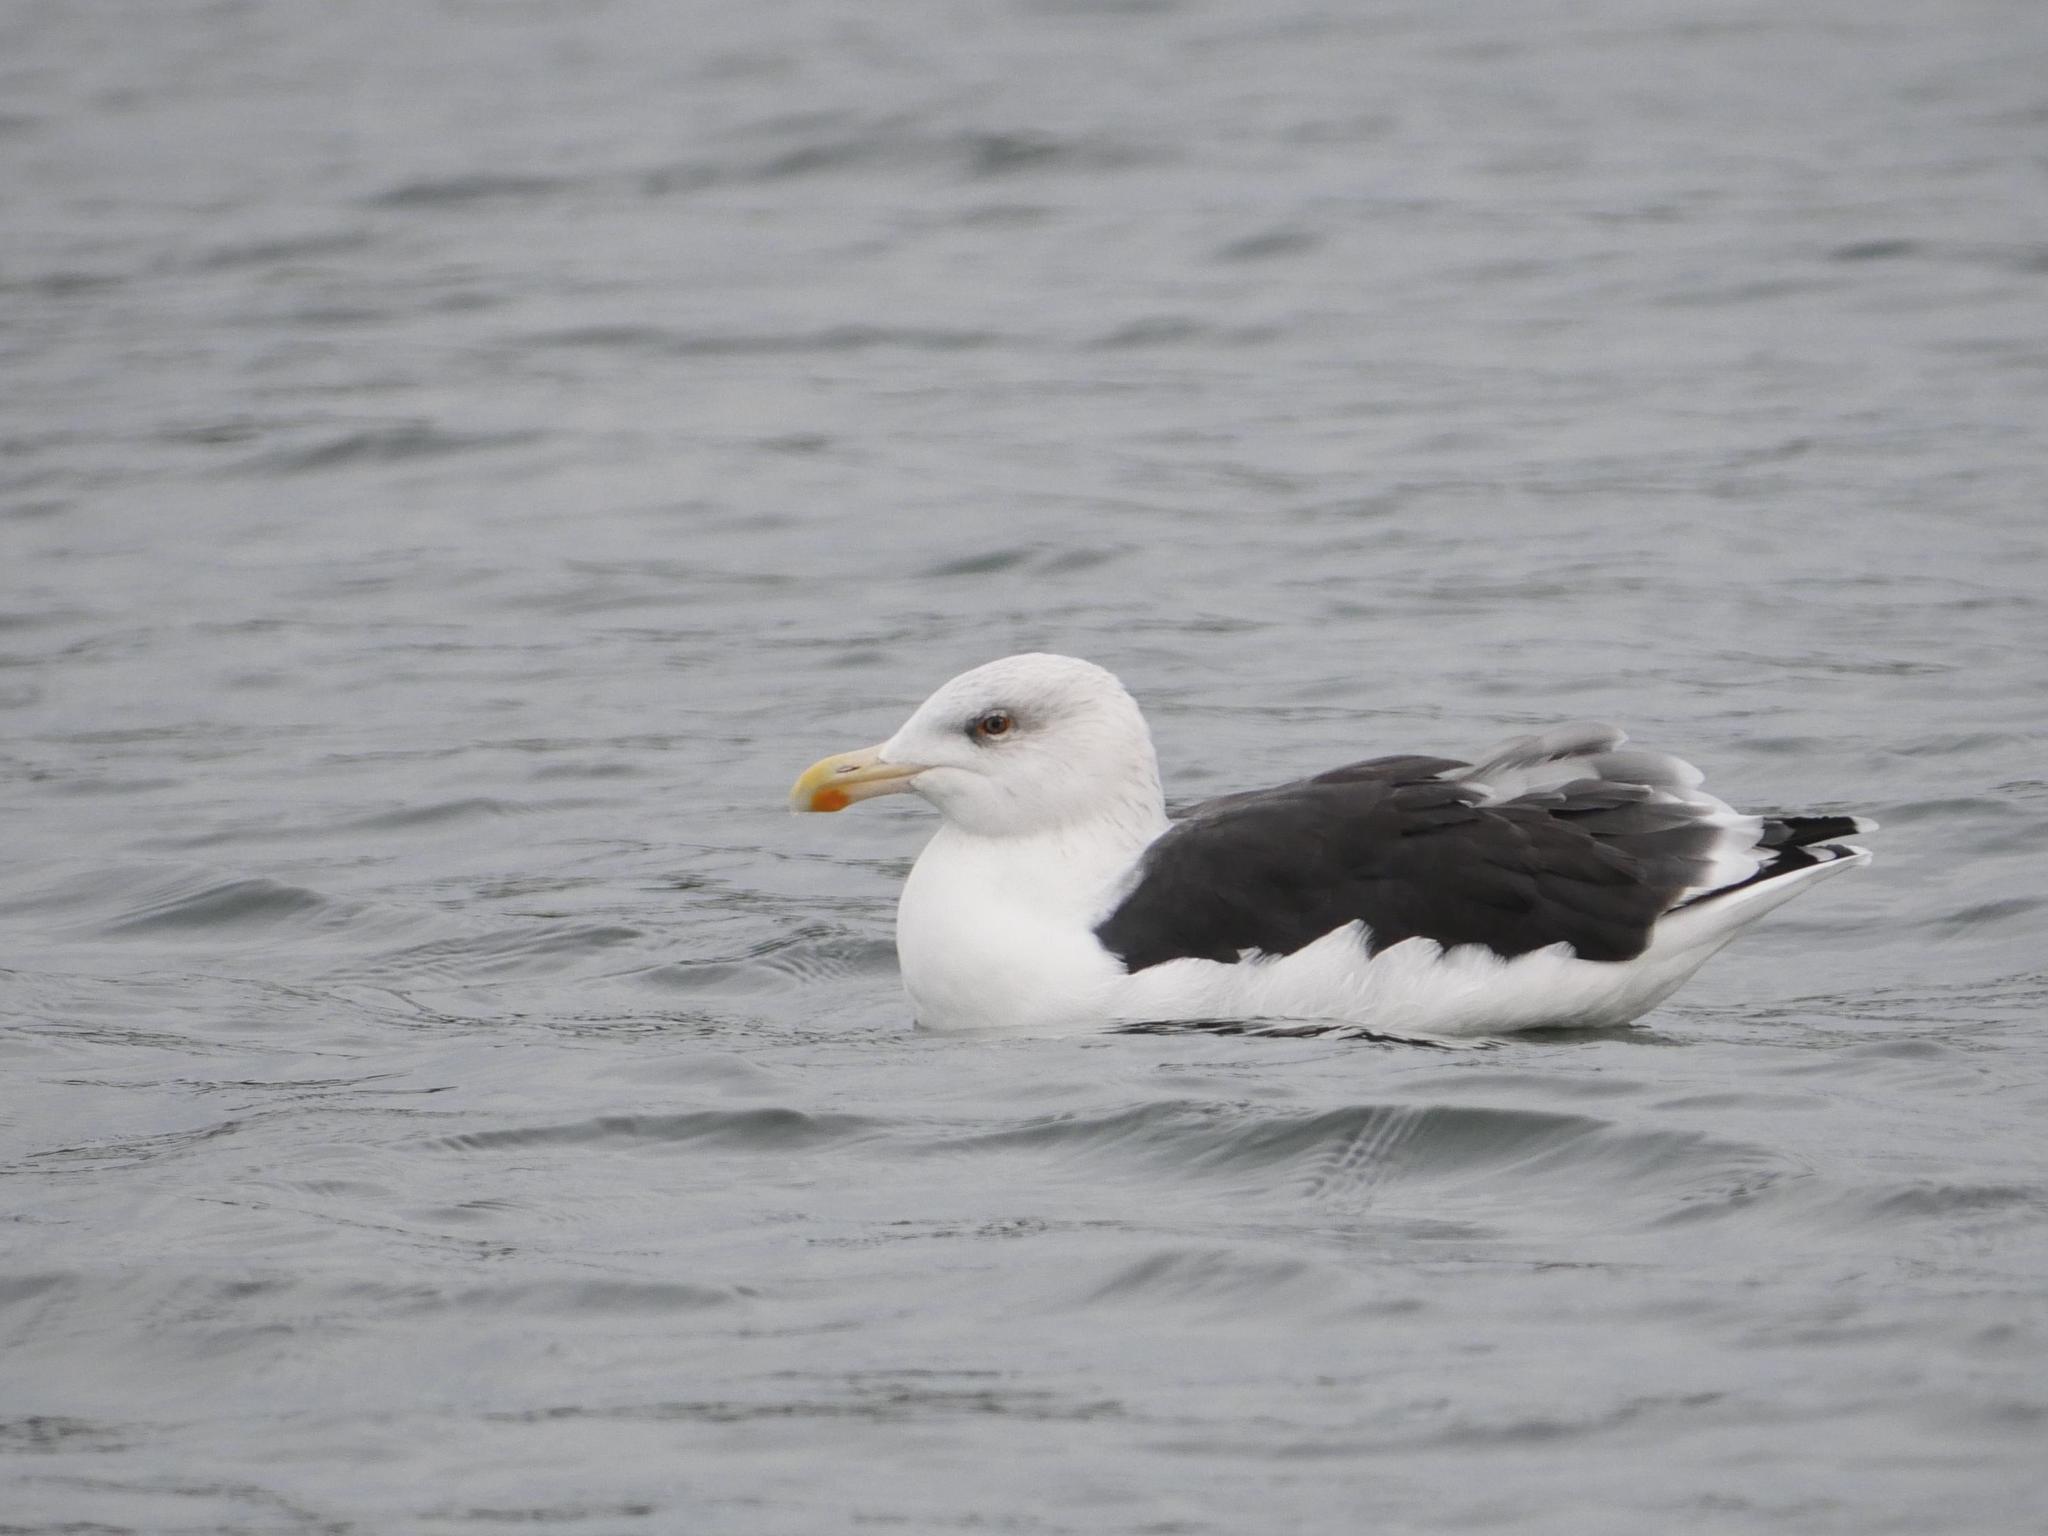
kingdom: Animalia
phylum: Chordata
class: Aves
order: Charadriiformes
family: Laridae
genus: Larus
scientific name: Larus marinus
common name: Great black-backed gull
